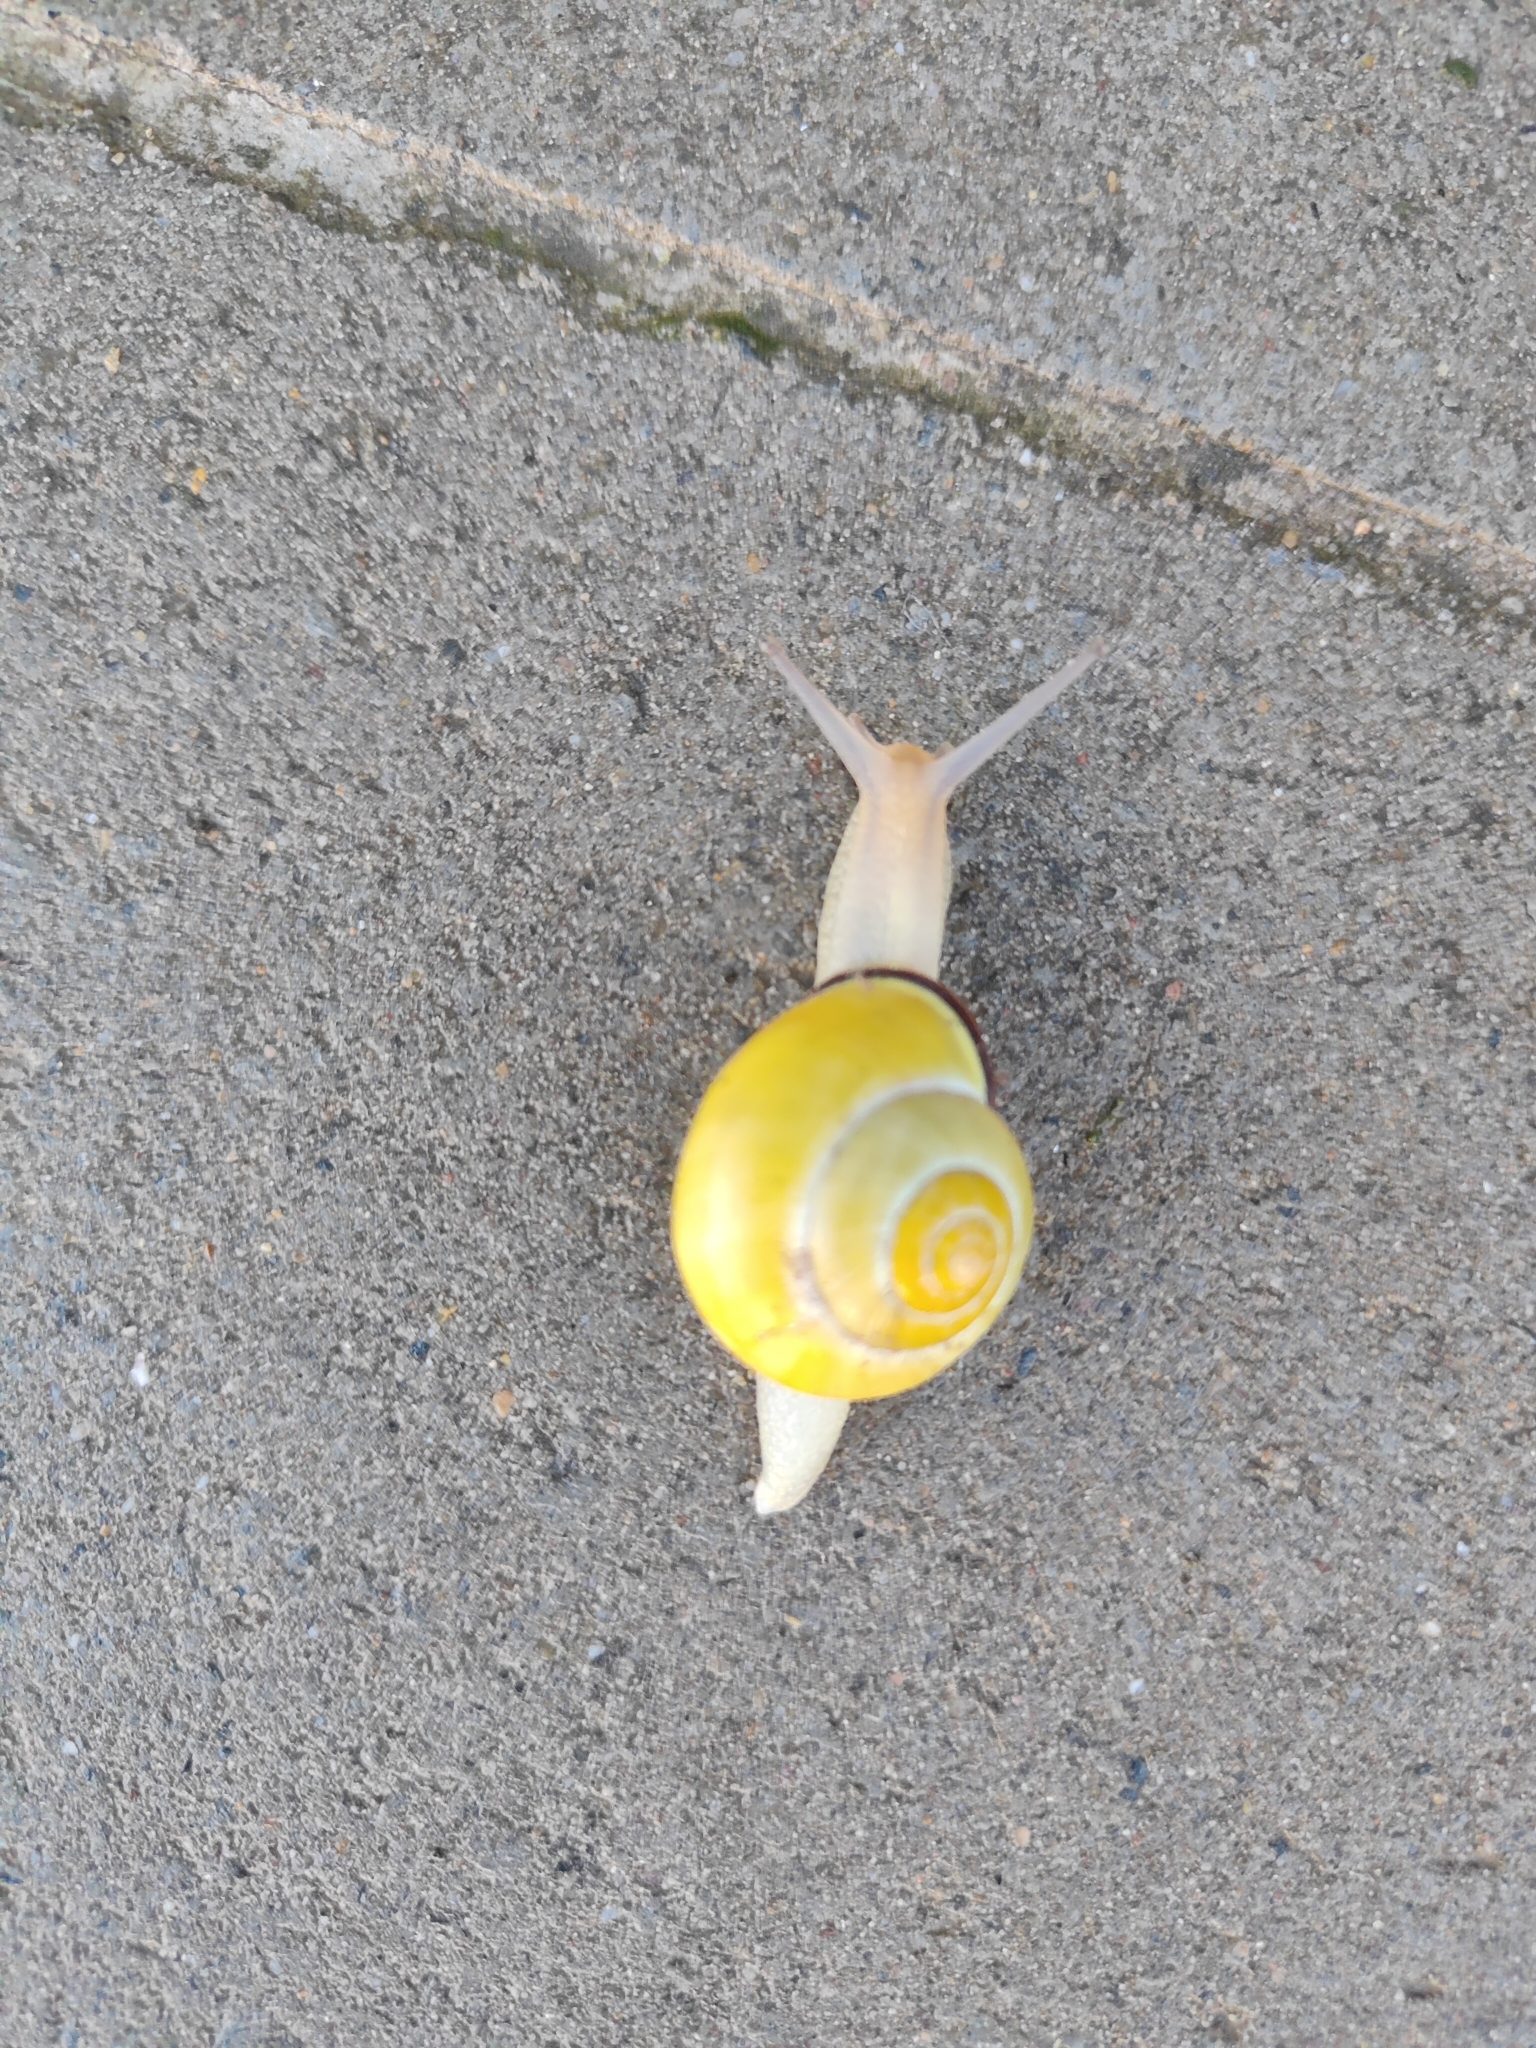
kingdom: Animalia
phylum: Mollusca
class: Gastropoda
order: Stylommatophora
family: Helicidae
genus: Cepaea
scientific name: Cepaea nemoralis
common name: Grovesnail
